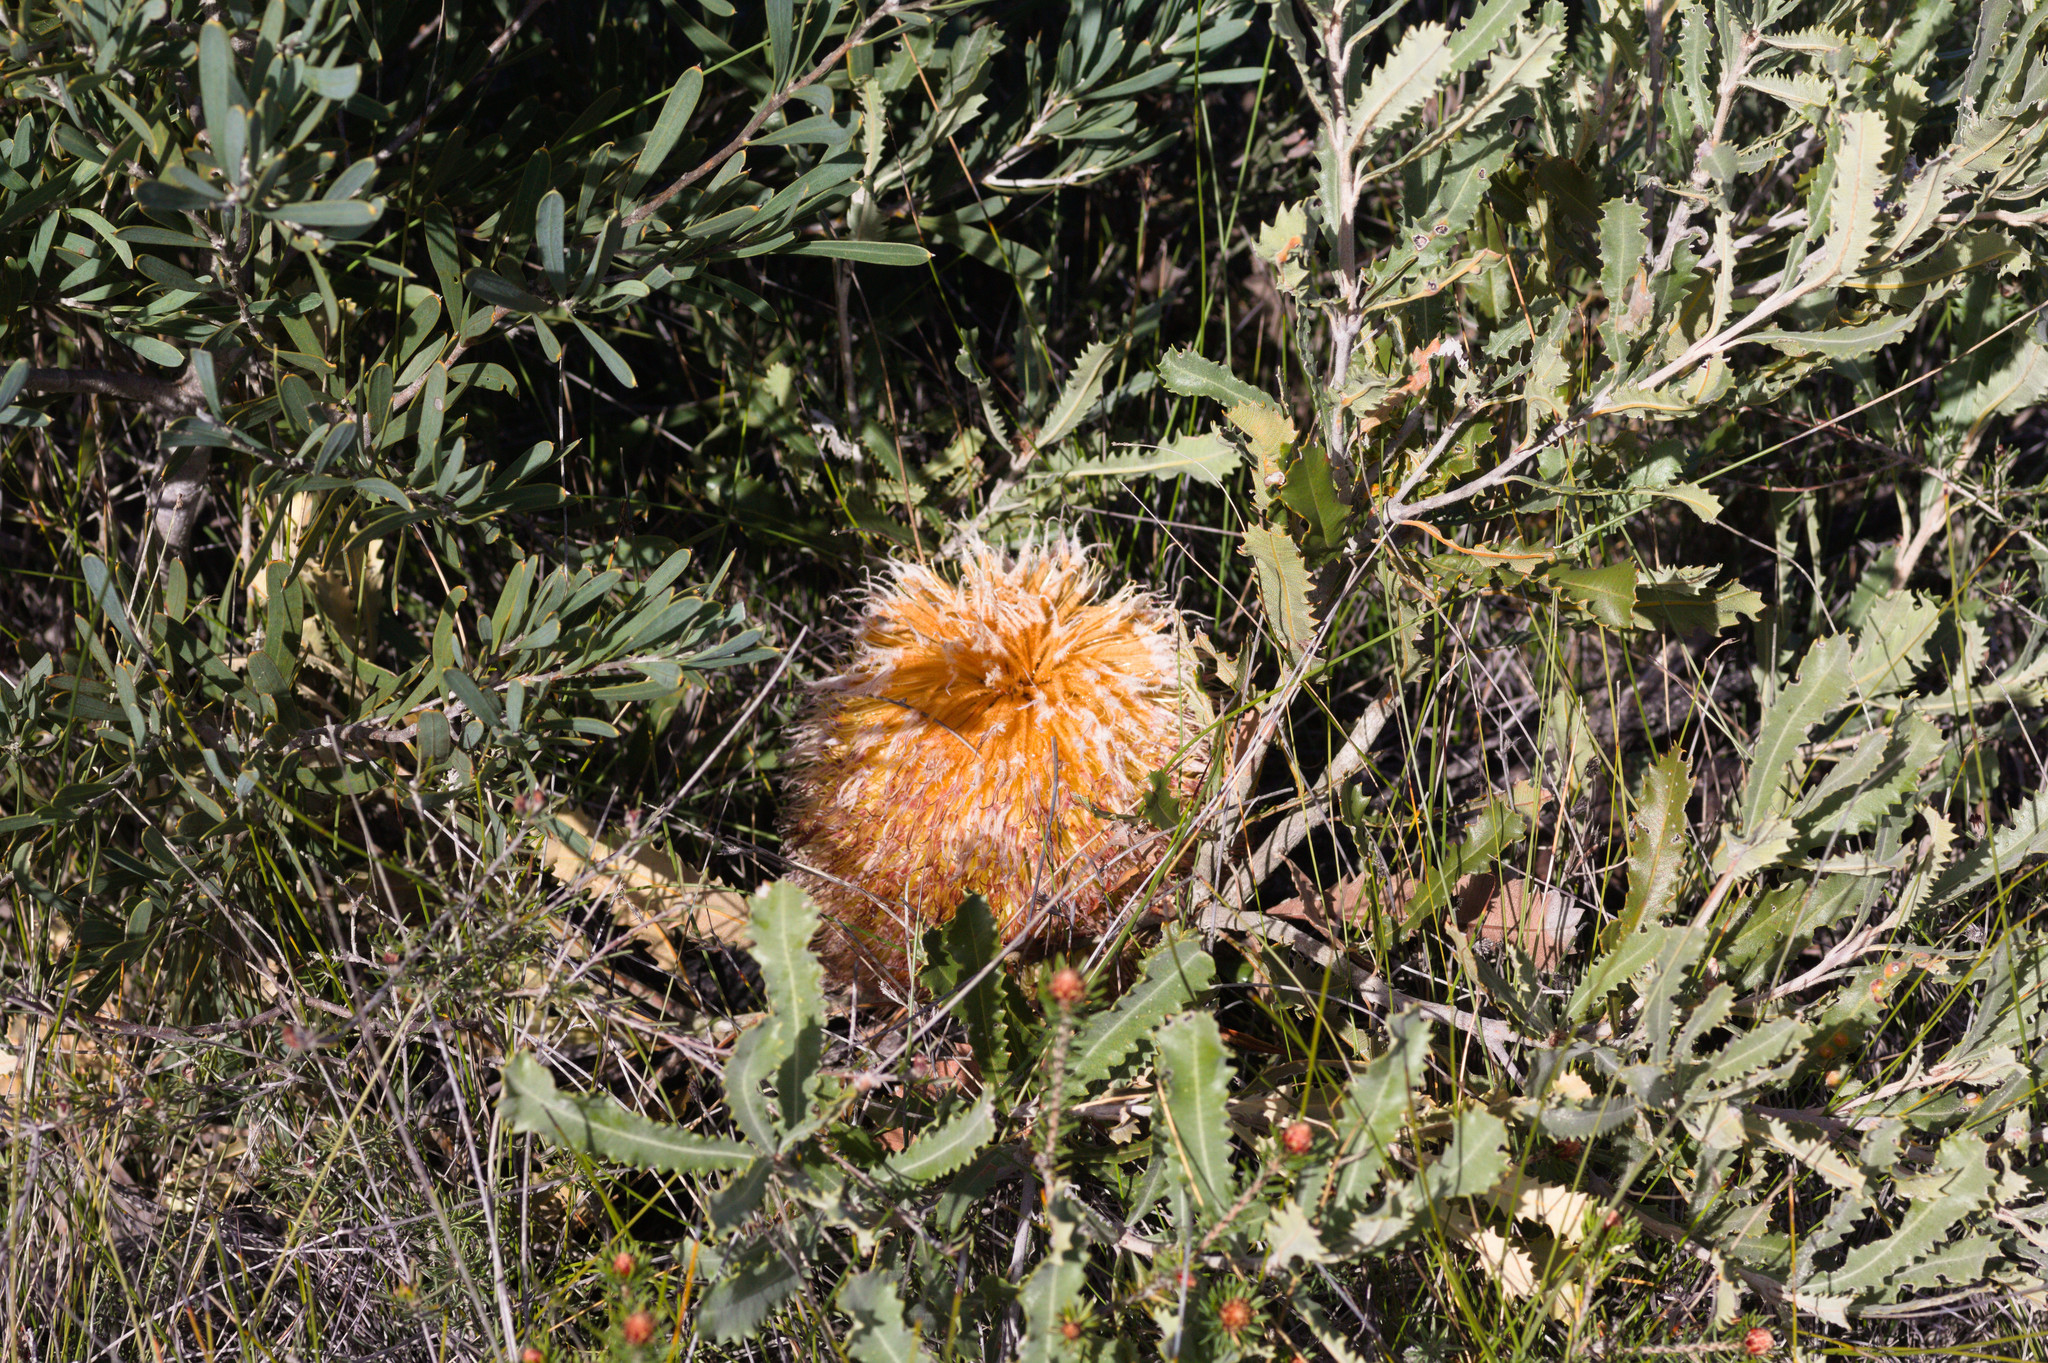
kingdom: Plantae
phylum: Tracheophyta
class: Magnoliopsida
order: Proteales
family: Proteaceae
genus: Banksia
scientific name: Banksia baueri
